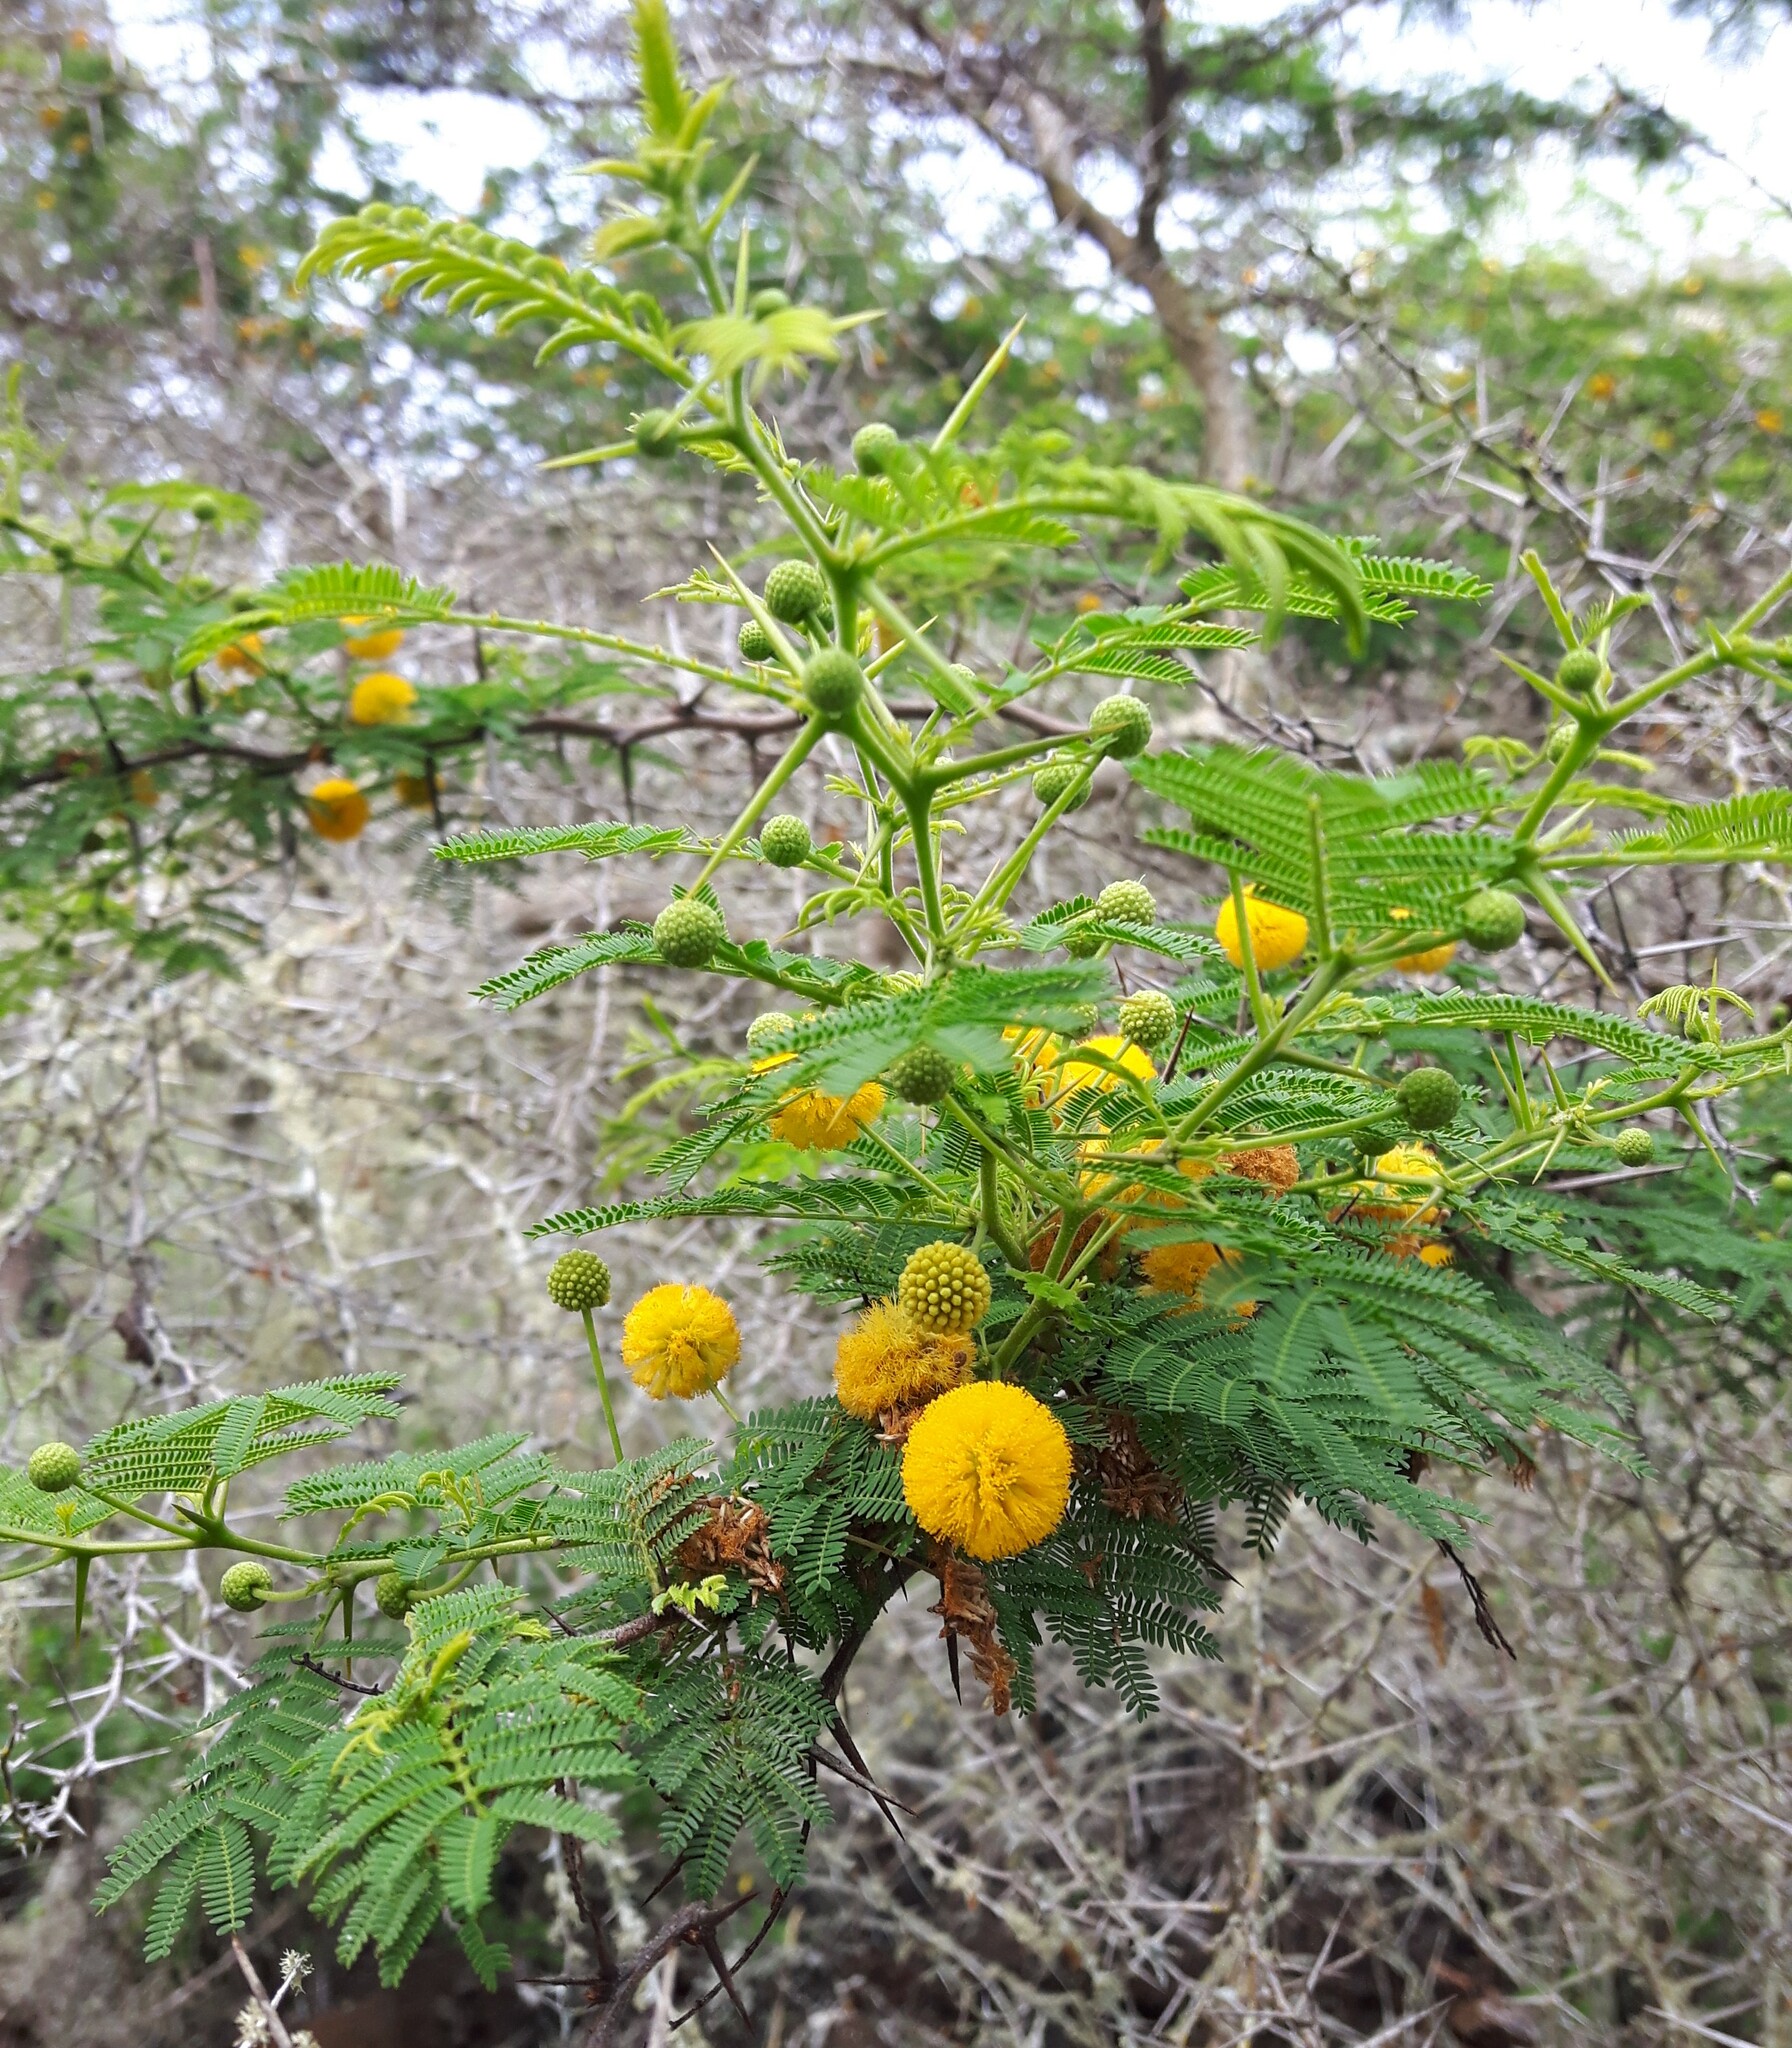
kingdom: Plantae
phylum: Tracheophyta
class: Magnoliopsida
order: Fabales
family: Fabaceae
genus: Vachellia
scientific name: Vachellia macracantha
